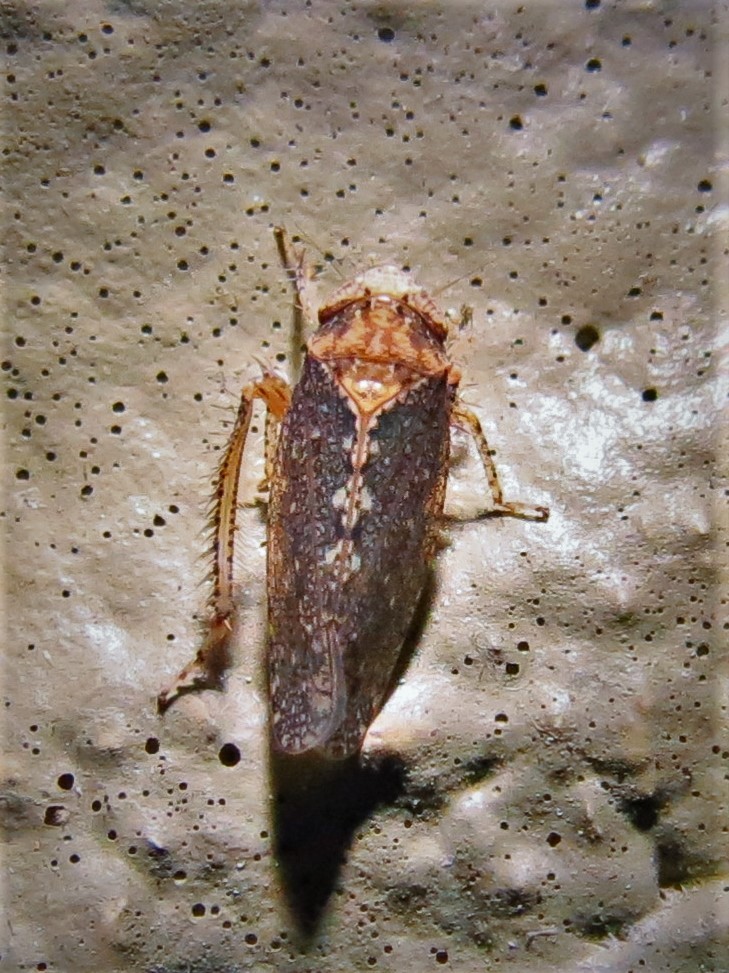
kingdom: Animalia
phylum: Arthropoda
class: Insecta
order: Hemiptera
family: Cicadellidae
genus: Excultanus
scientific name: Excultanus excultus
